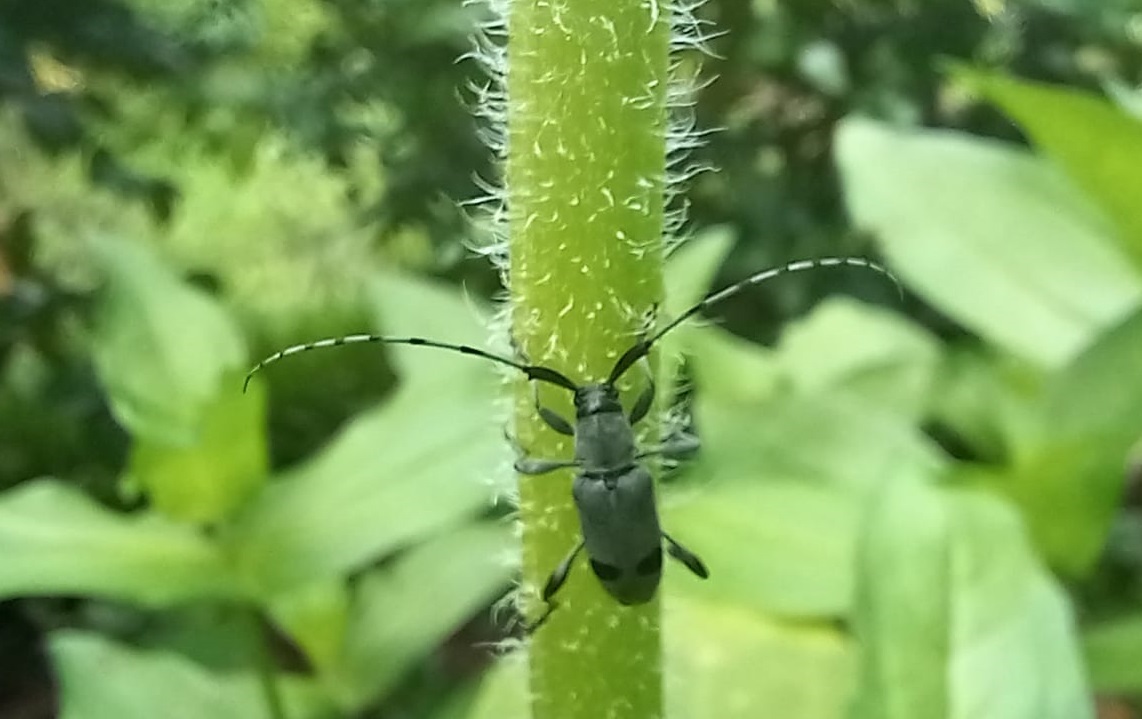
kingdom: Animalia
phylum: Arthropoda
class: Insecta
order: Coleoptera
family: Cerambycidae
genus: Canidia
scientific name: Canidia cincticornis
